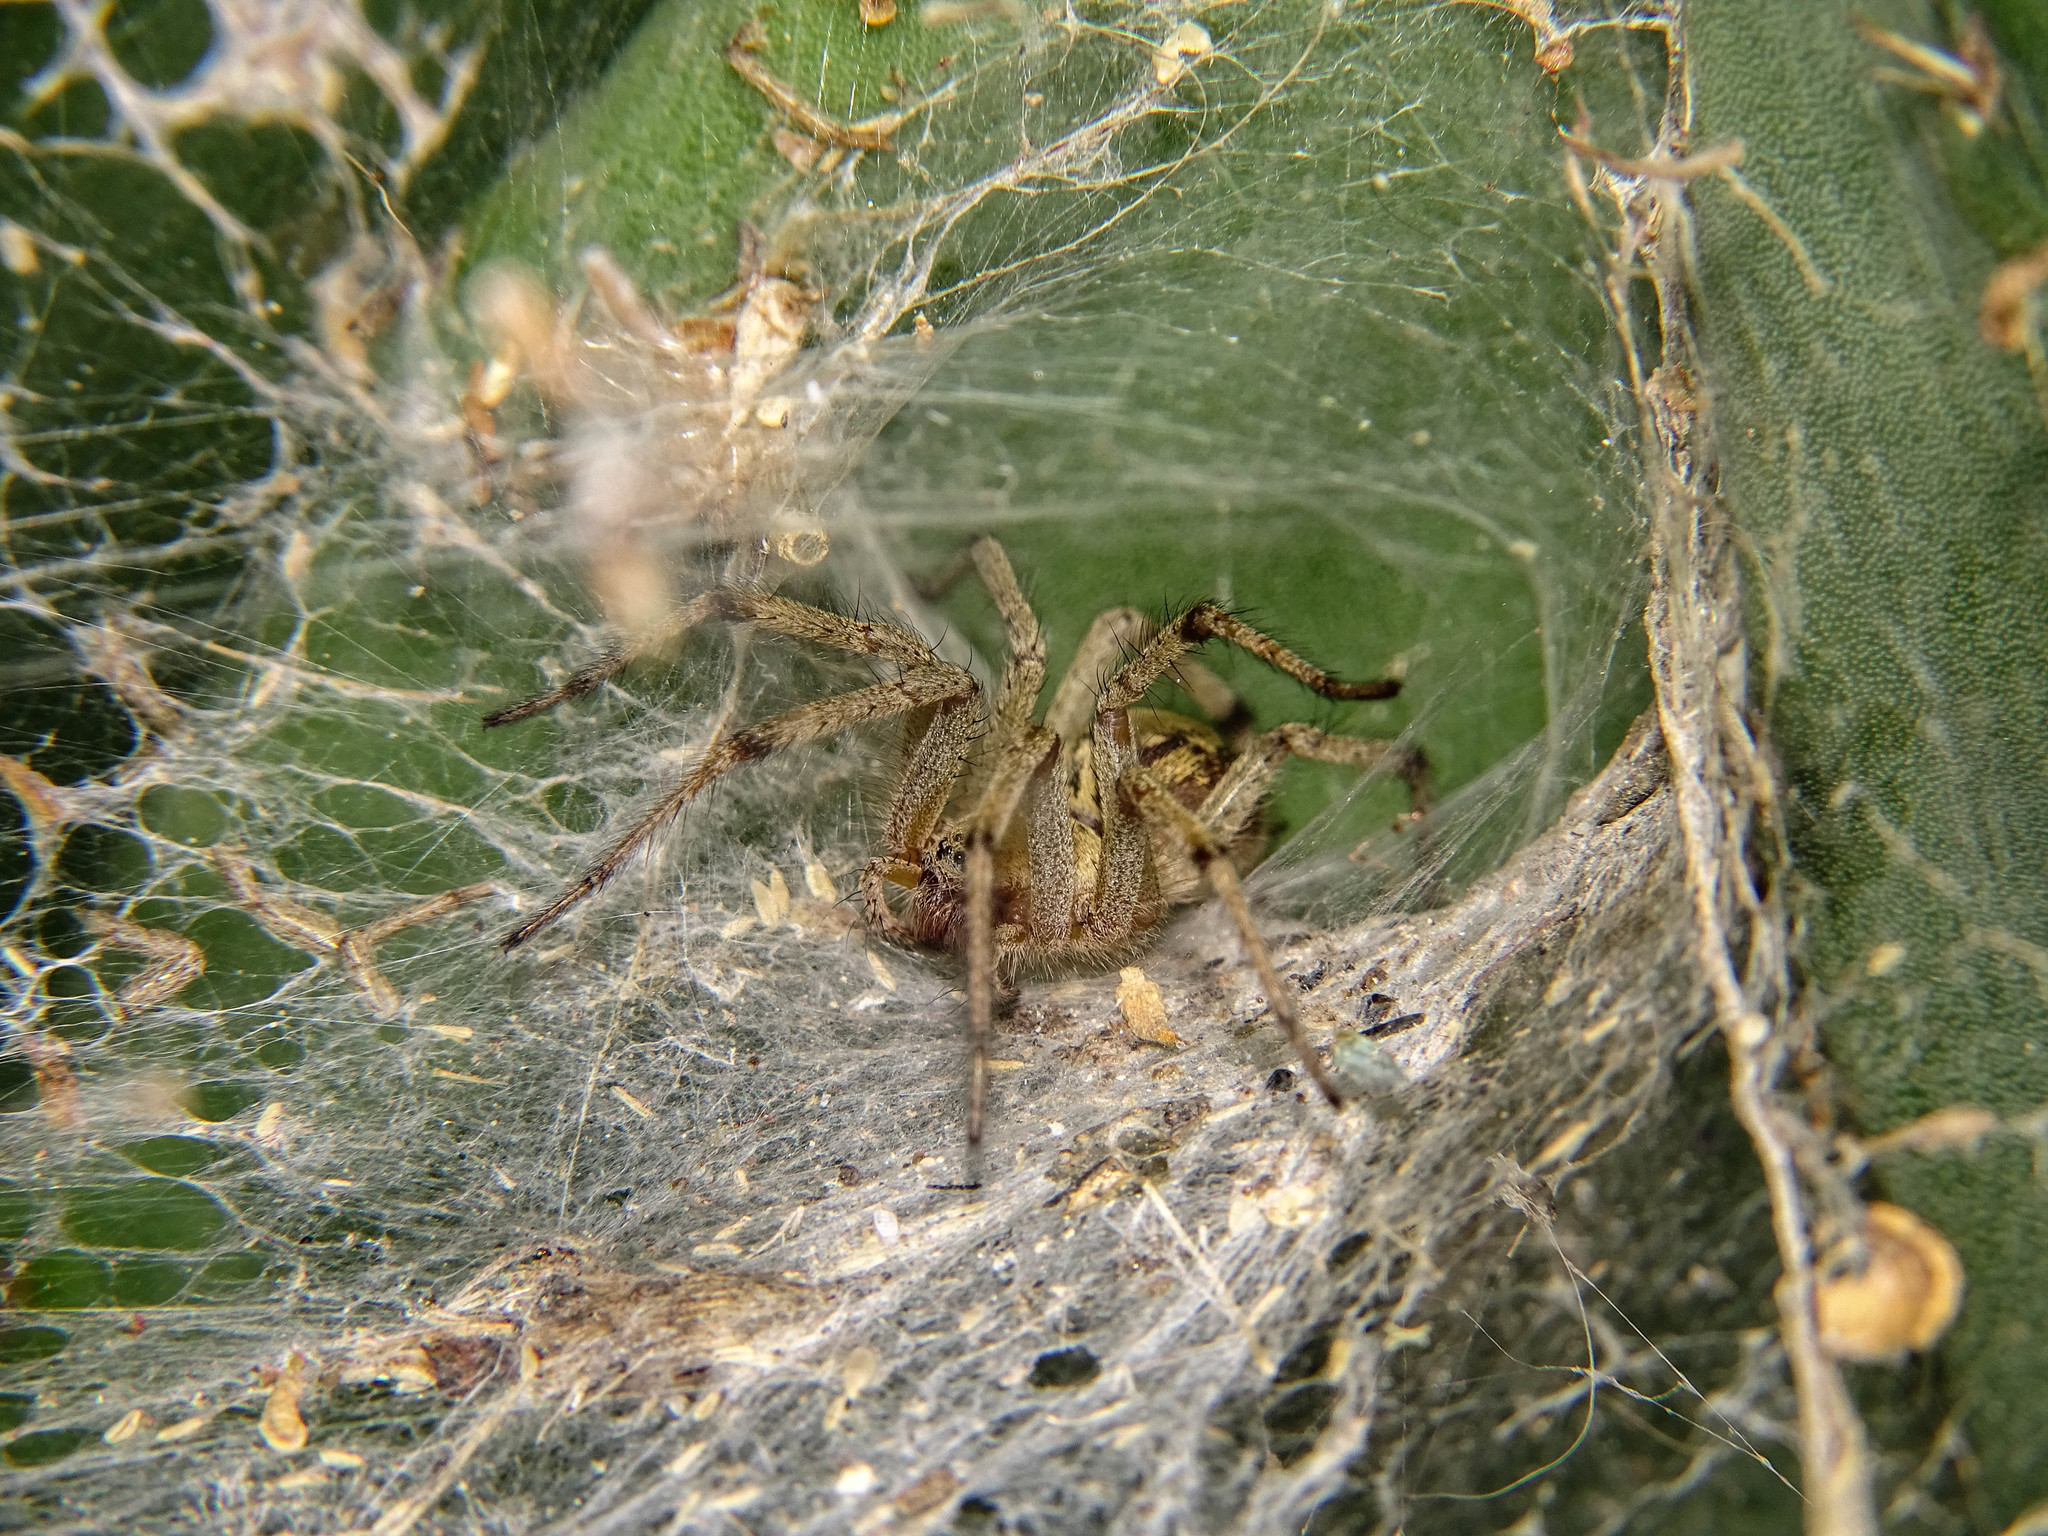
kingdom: Animalia
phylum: Arthropoda
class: Arachnida
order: Araneae
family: Agelenidae
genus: Agelena
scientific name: Agelena orientalis
